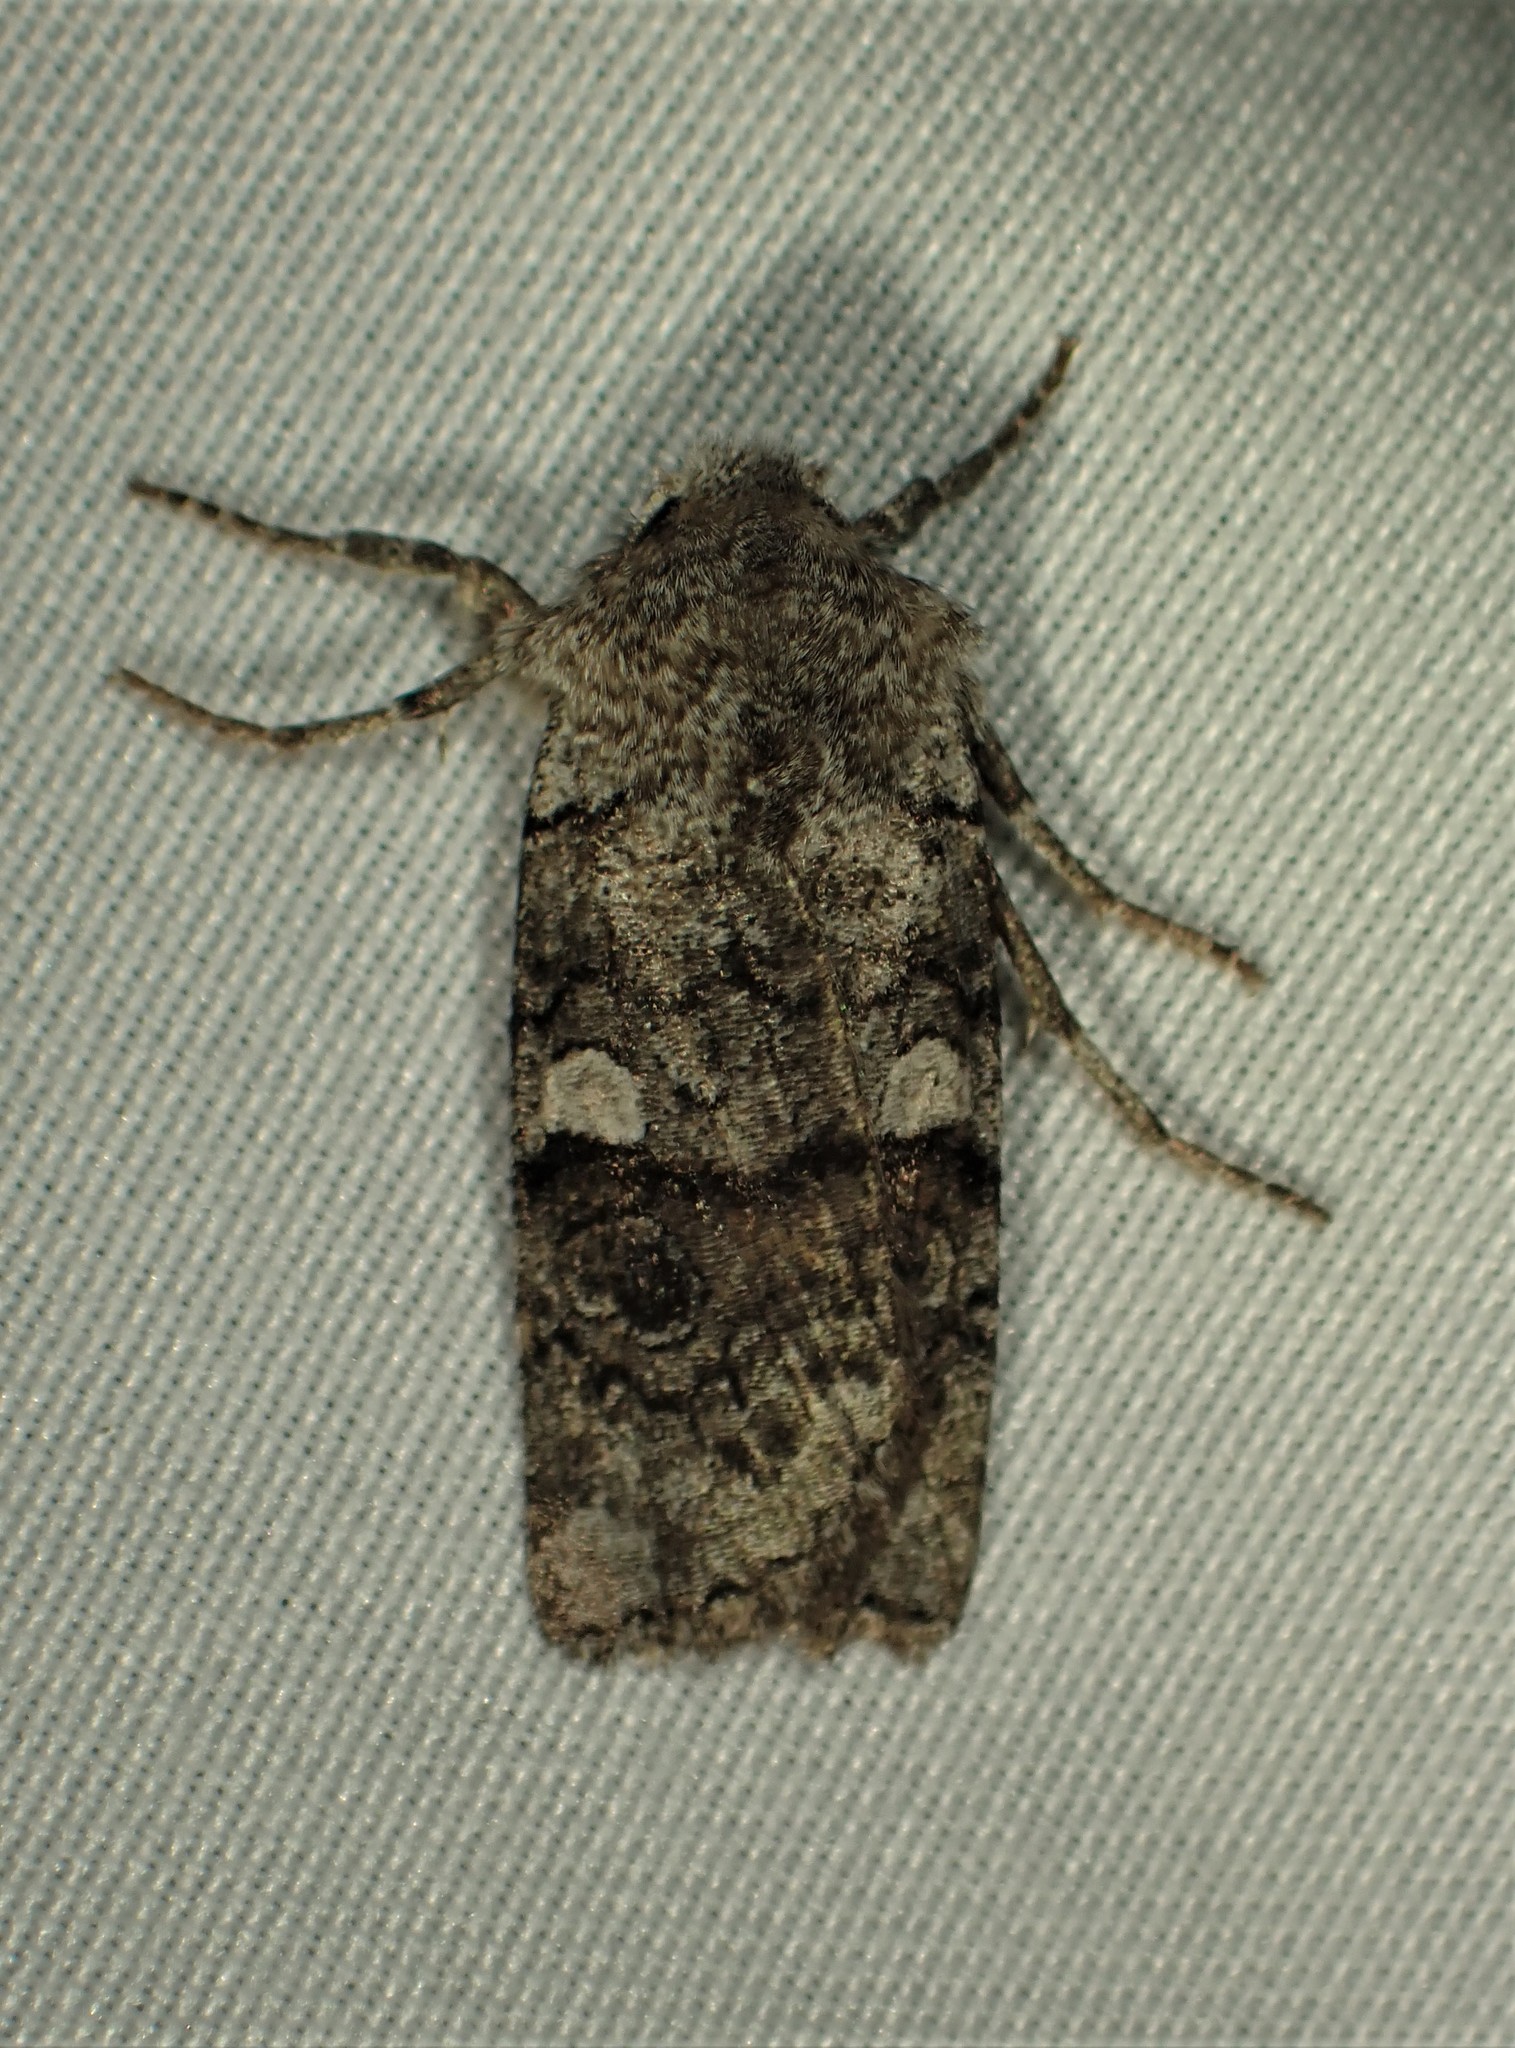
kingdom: Animalia
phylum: Arthropoda
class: Insecta
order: Lepidoptera
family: Noctuidae
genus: Litholomia
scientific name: Litholomia napaea
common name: False pinion moth
